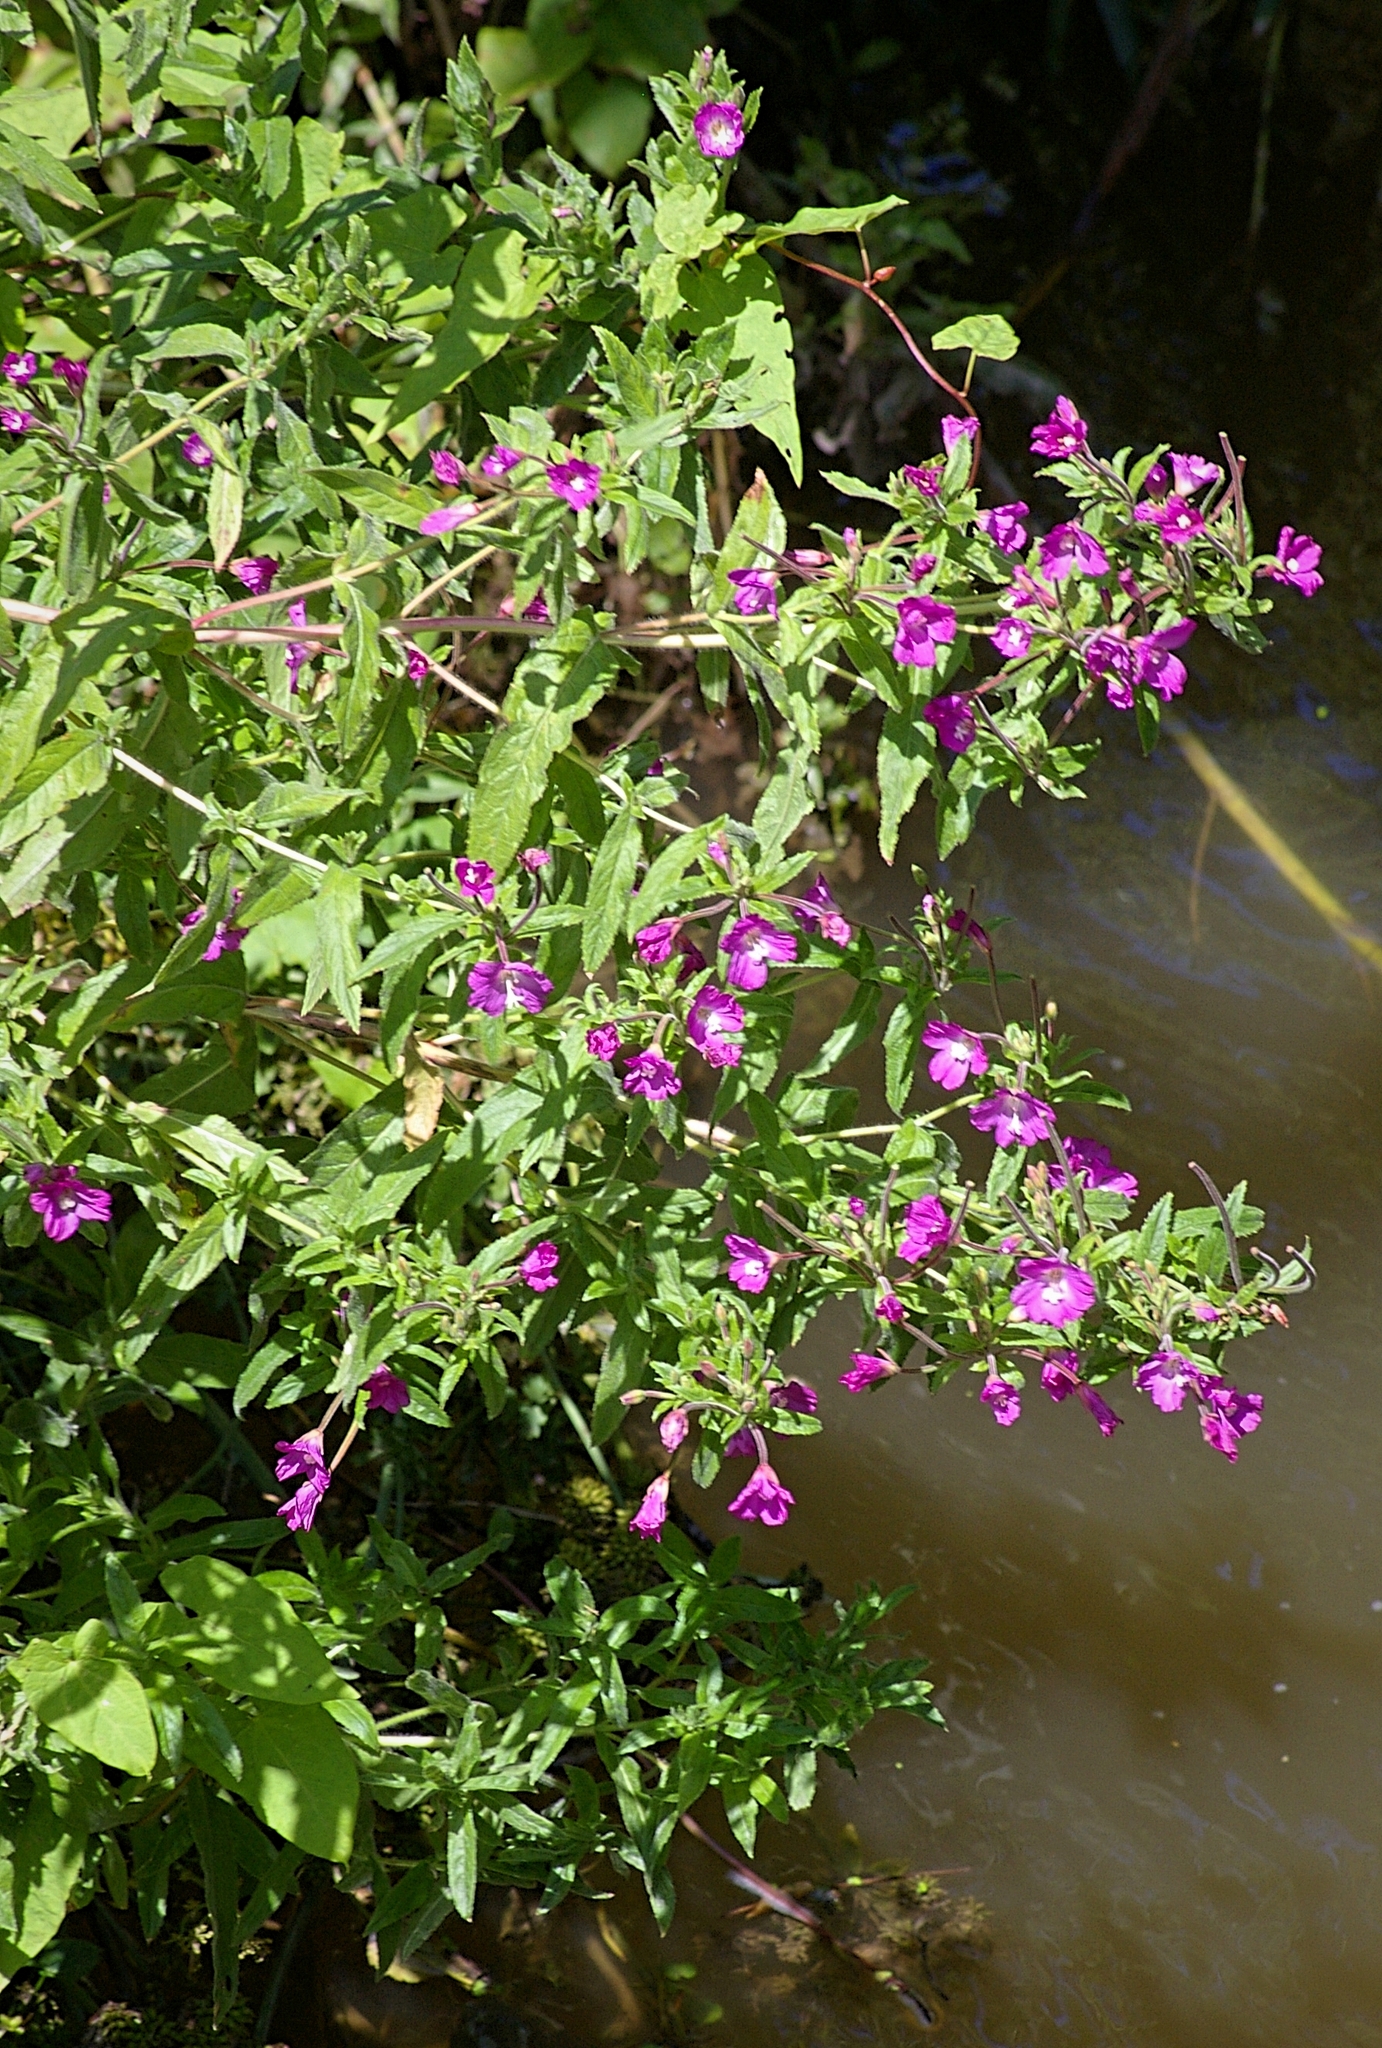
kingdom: Plantae
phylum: Tracheophyta
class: Magnoliopsida
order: Myrtales
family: Onagraceae
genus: Epilobium
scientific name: Epilobium hirsutum
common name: Great willowherb
